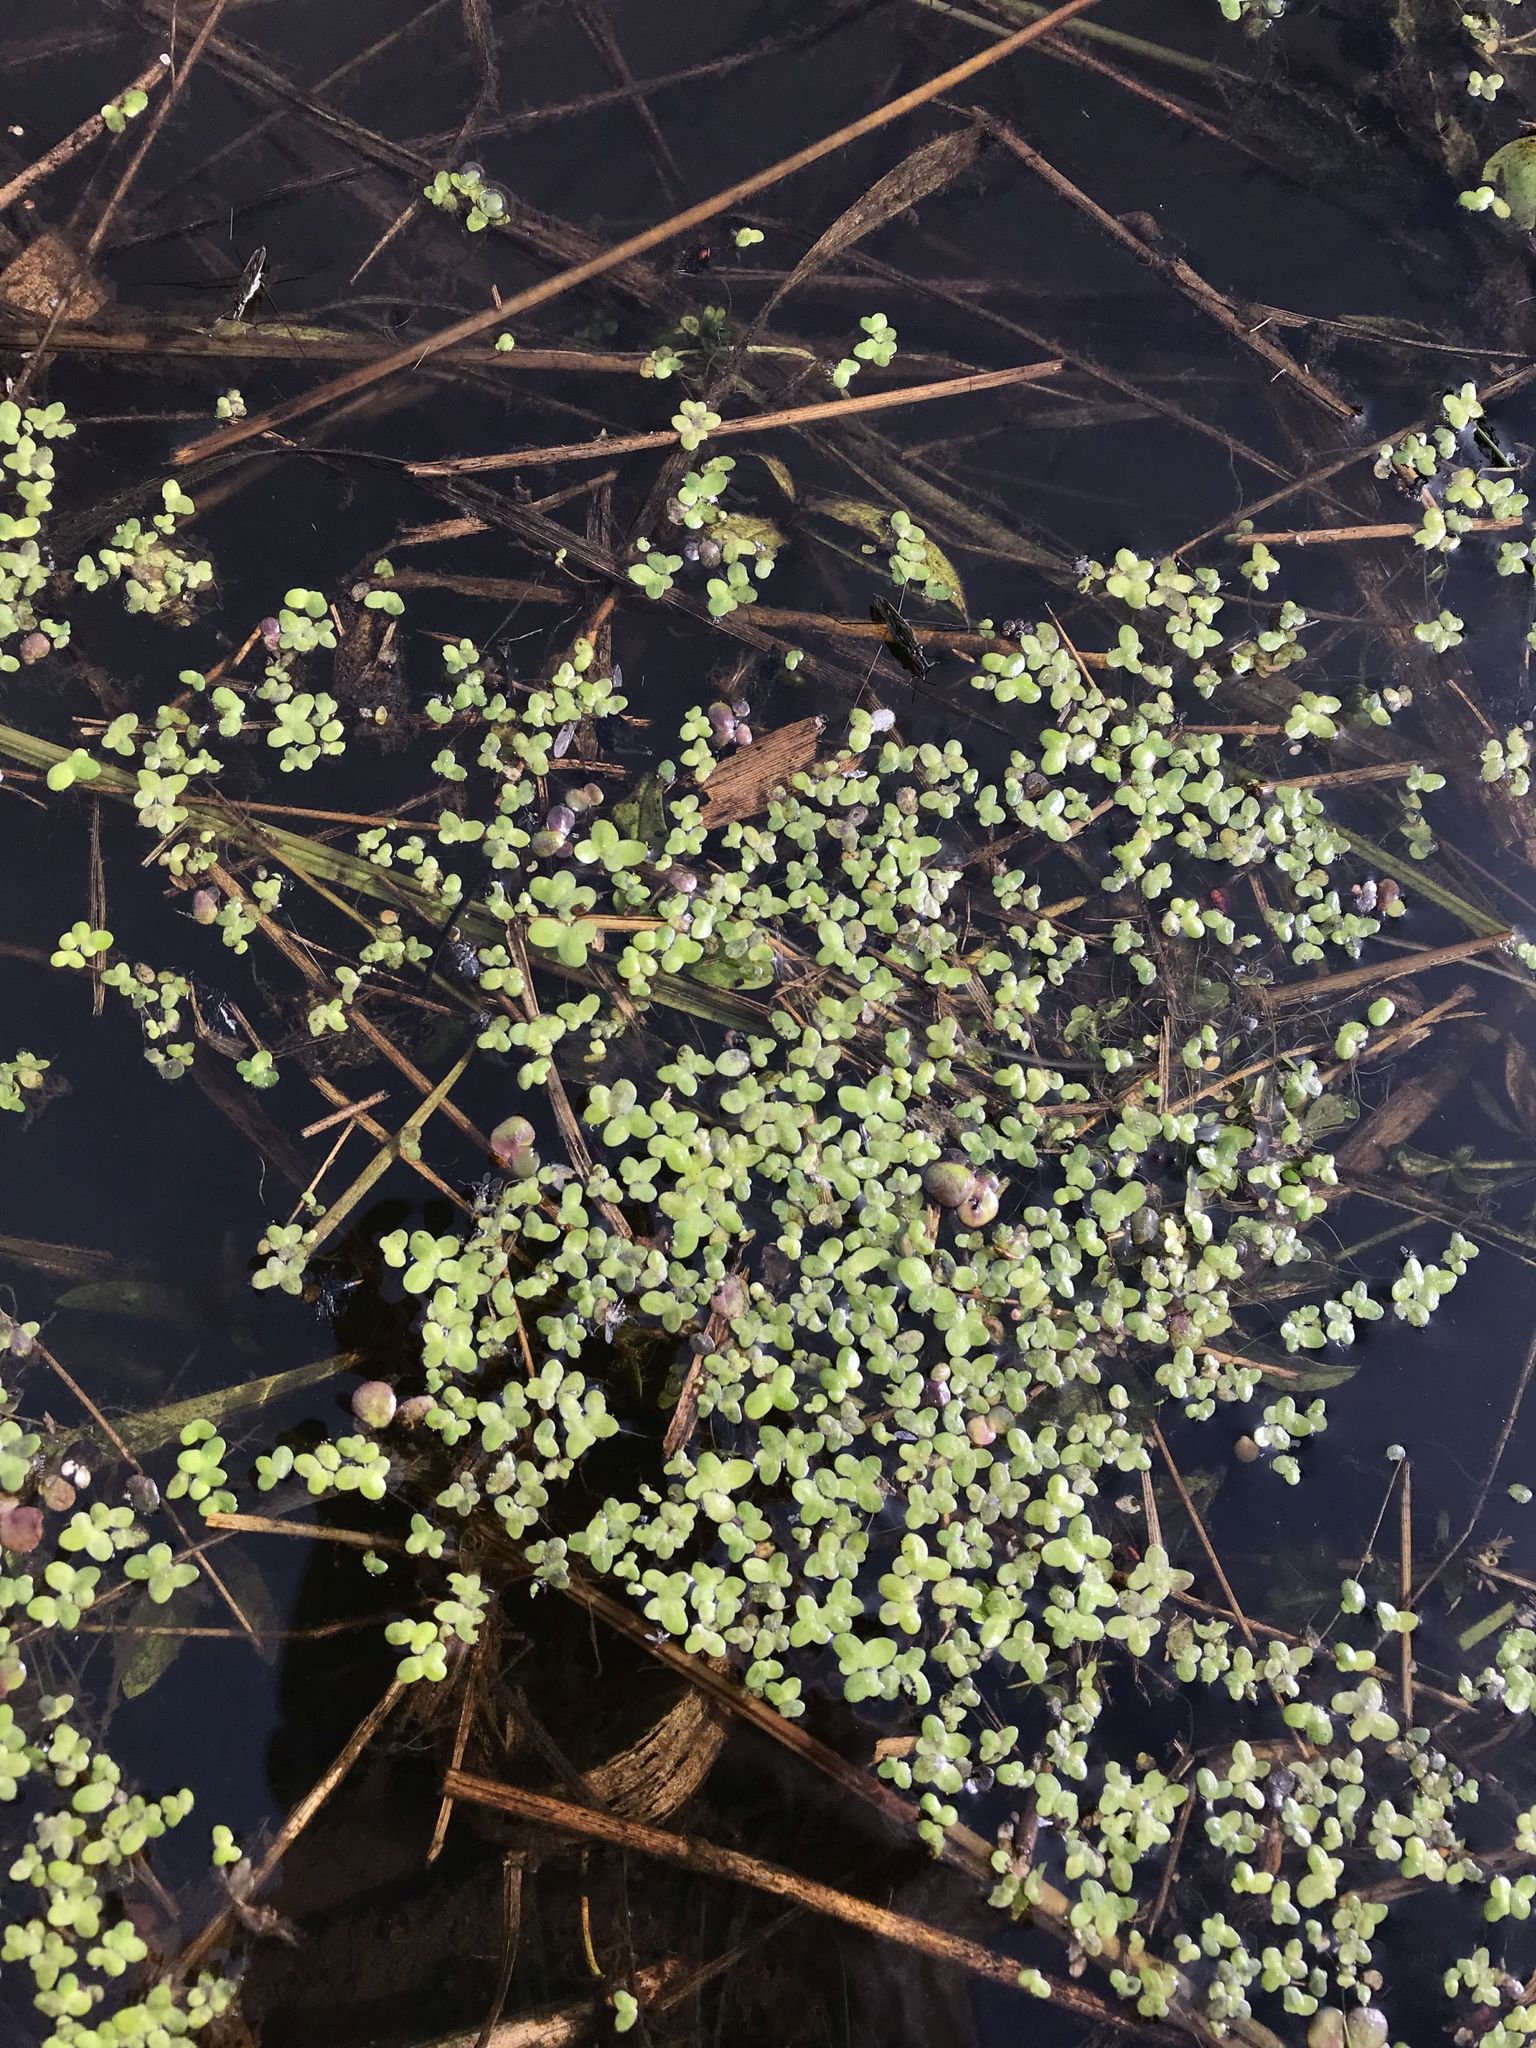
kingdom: Plantae
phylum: Tracheophyta
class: Liliopsida
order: Alismatales
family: Araceae
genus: Lemna
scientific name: Lemna minor
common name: Common duckweed
